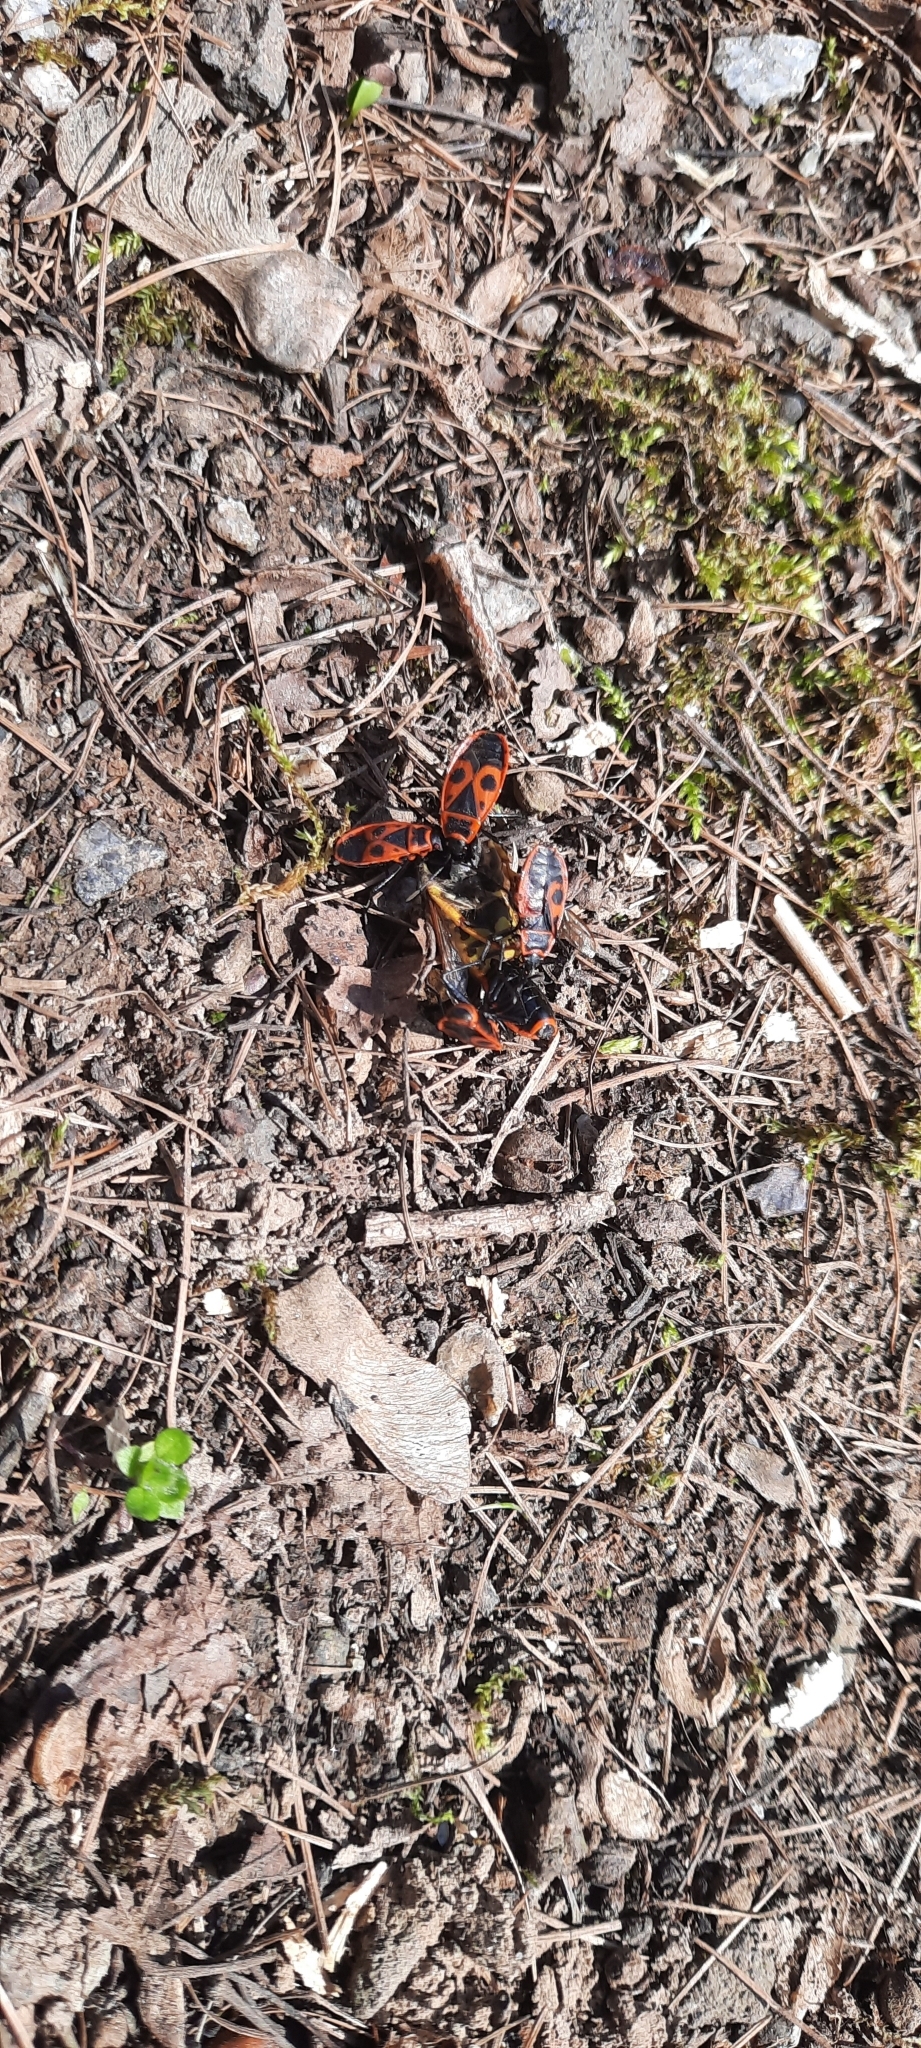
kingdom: Animalia
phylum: Arthropoda
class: Insecta
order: Hemiptera
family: Pyrrhocoridae
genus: Pyrrhocoris
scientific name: Pyrrhocoris apterus
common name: Firebug
